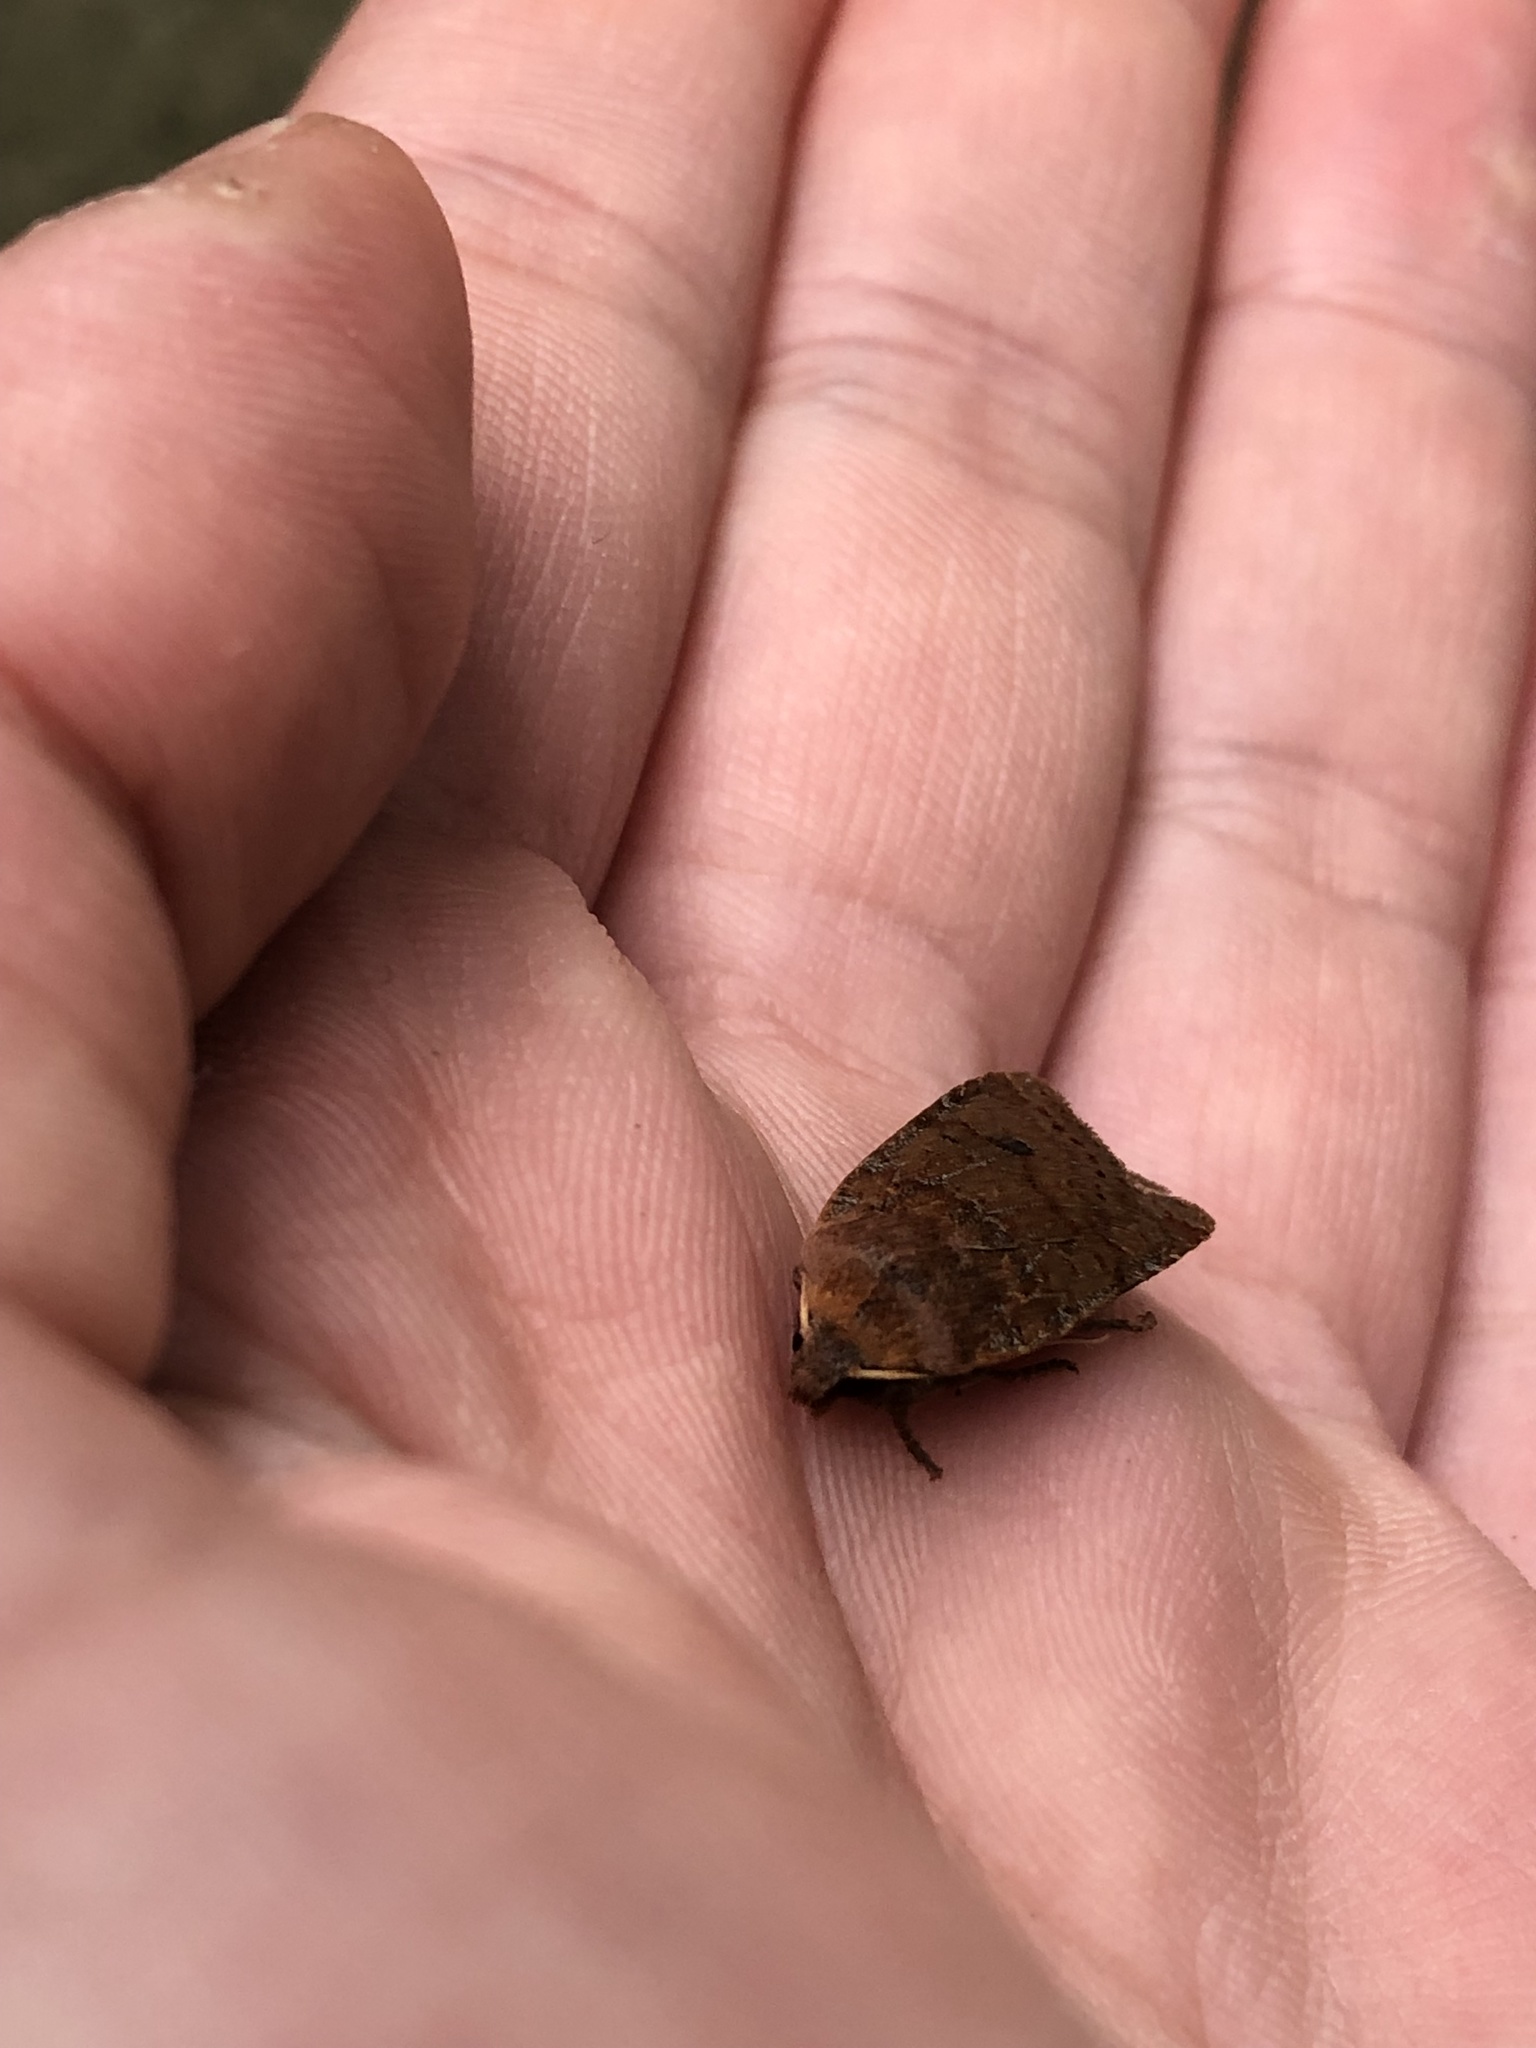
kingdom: Animalia
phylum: Arthropoda
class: Insecta
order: Lepidoptera
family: Noctuidae
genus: Conistra
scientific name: Conistra vaccinii
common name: Chestnut
